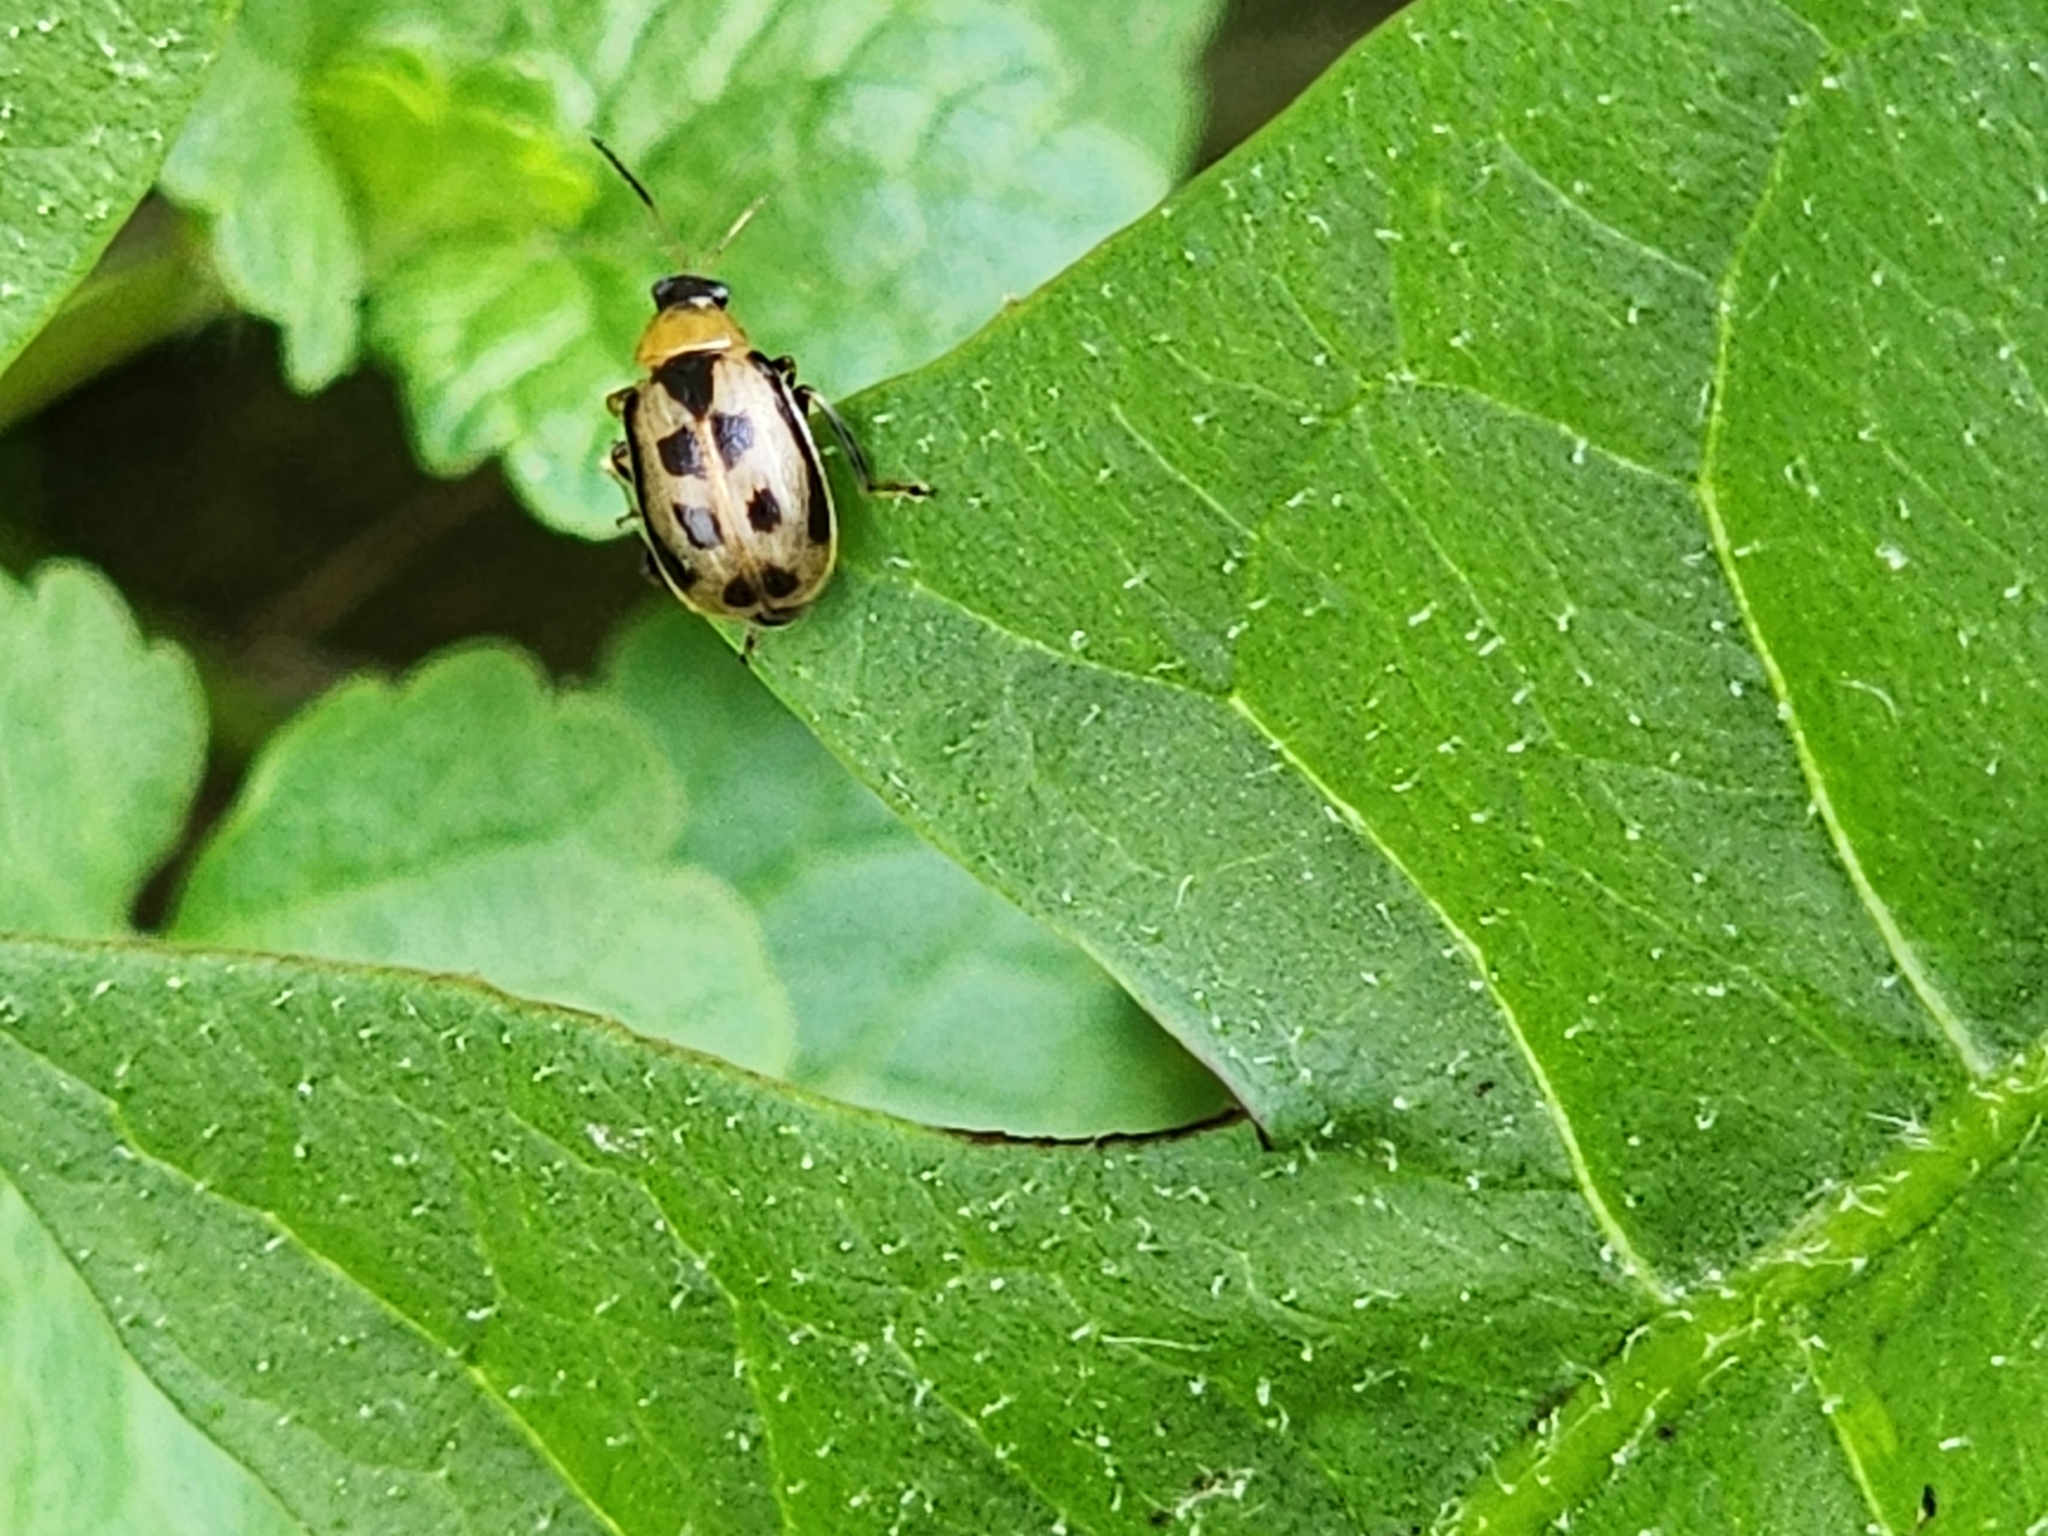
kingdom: Animalia
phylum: Arthropoda
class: Insecta
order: Coleoptera
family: Chrysomelidae
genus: Cerotoma
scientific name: Cerotoma trifurcata
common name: Bean leaf beetle
